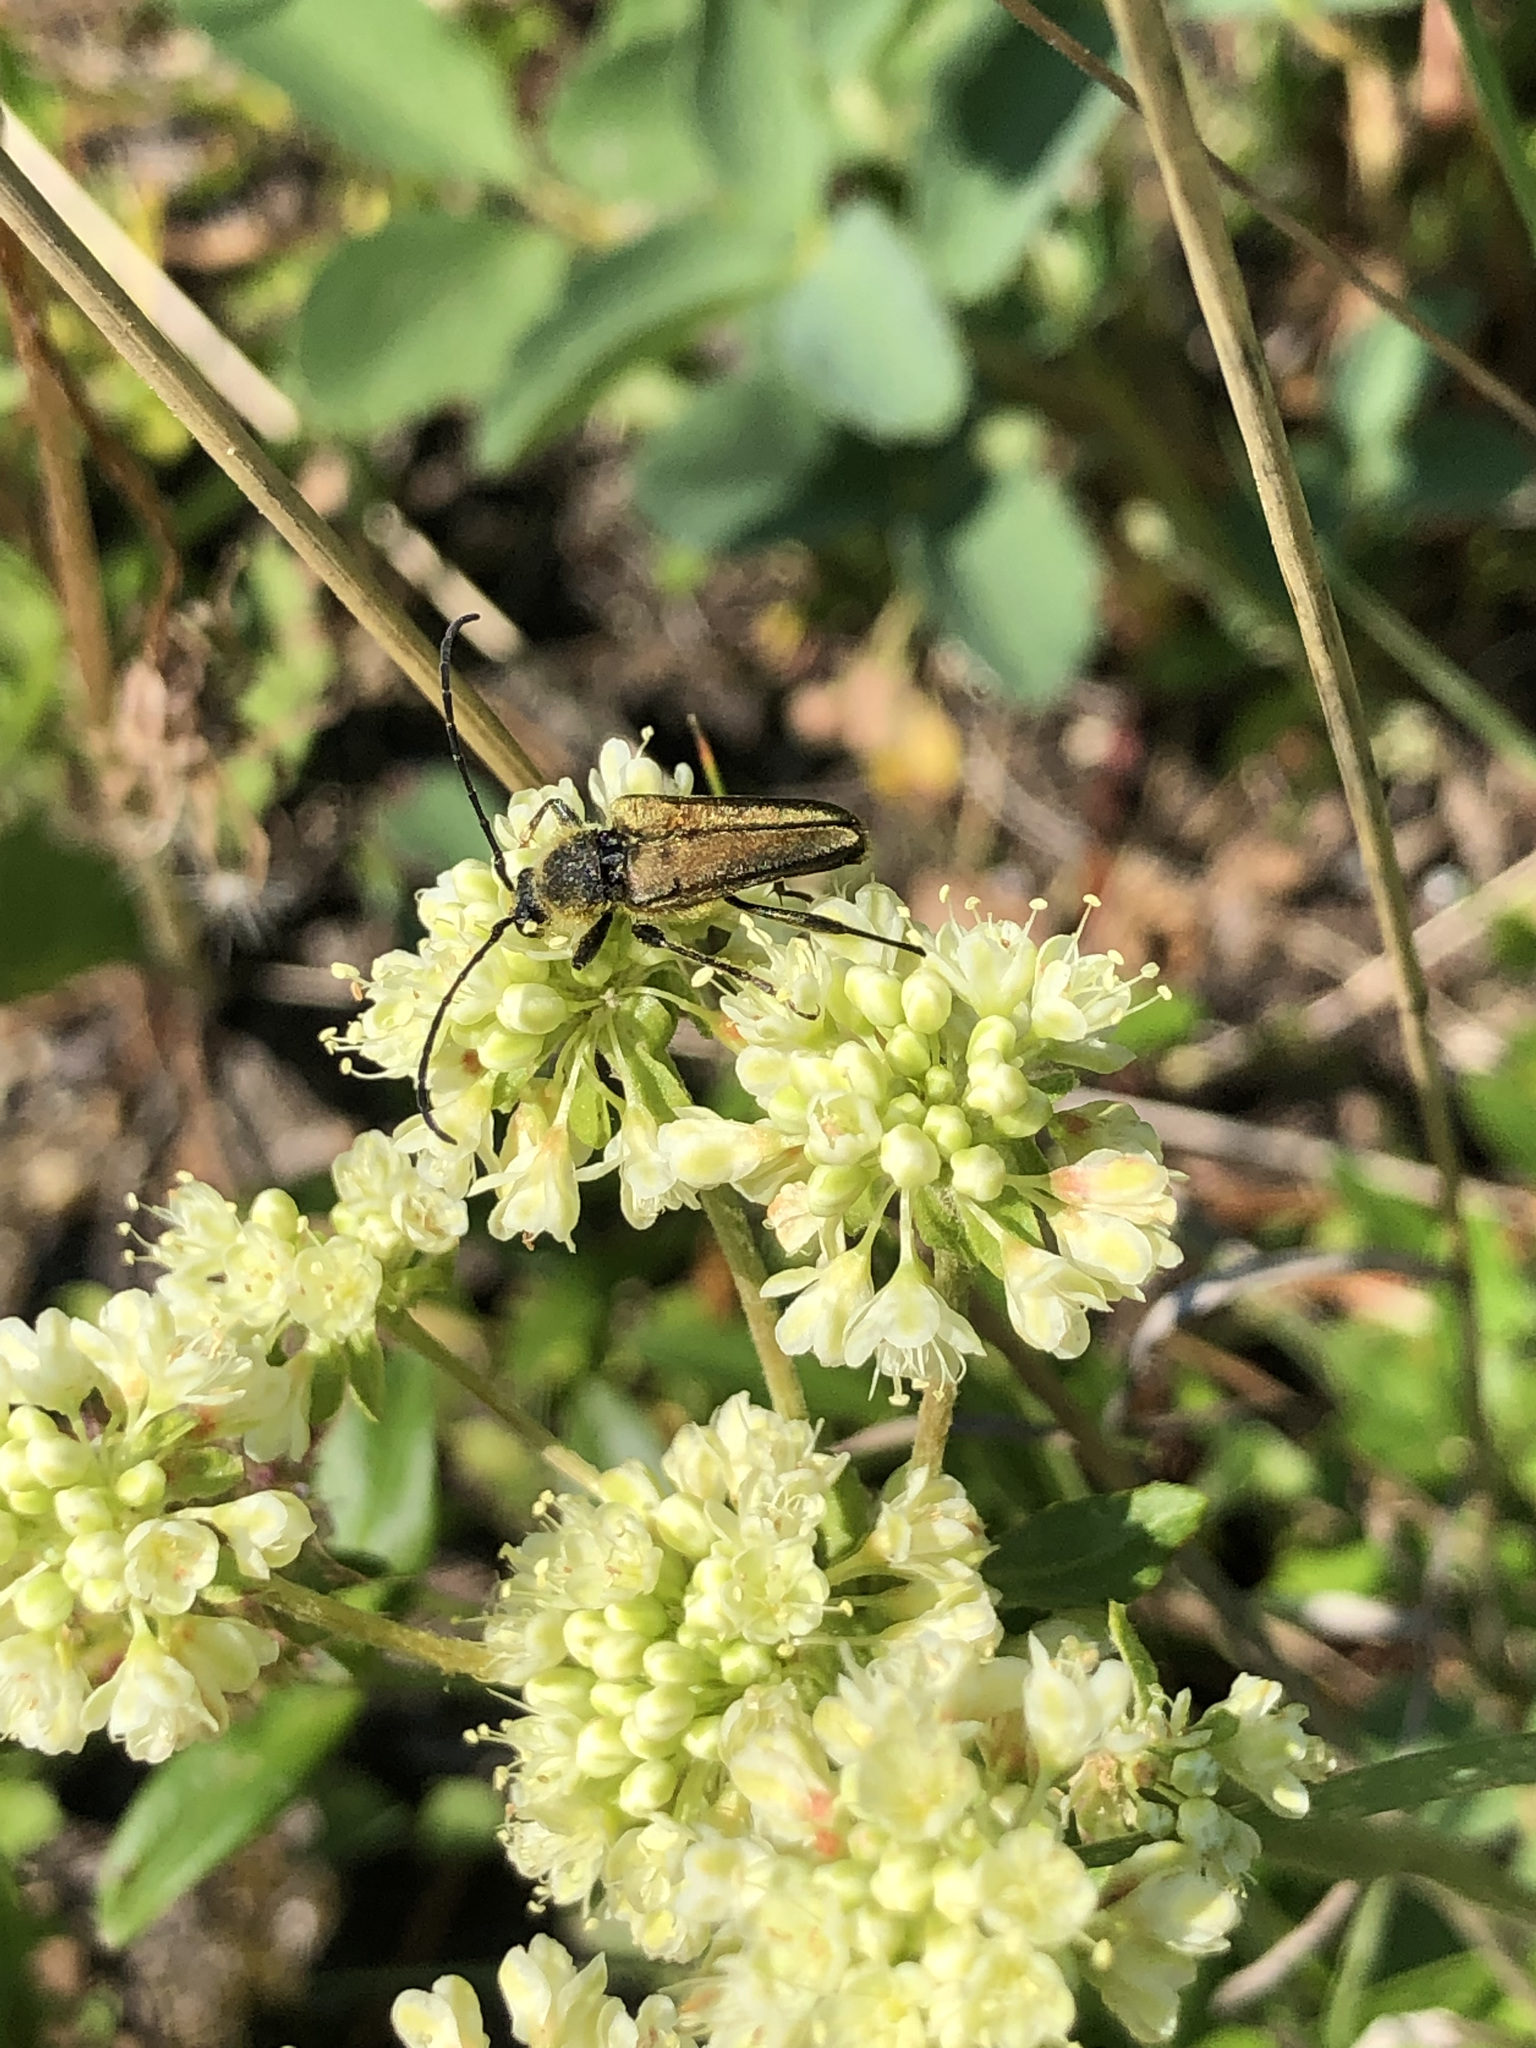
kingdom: Animalia
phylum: Arthropoda
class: Insecta
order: Coleoptera
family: Cerambycidae
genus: Cosmosalia
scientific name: Cosmosalia chrysocoma
